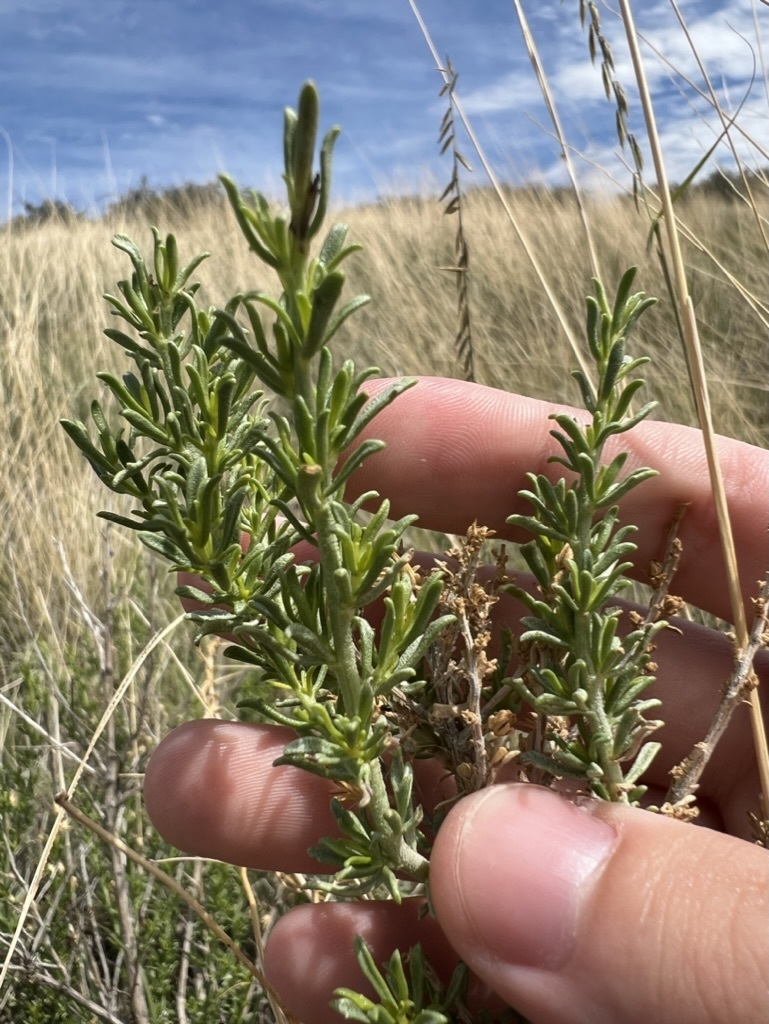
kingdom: Plantae
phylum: Tracheophyta
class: Magnoliopsida
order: Asterales
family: Asteraceae
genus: Baccharis
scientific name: Baccharis pteronioides
